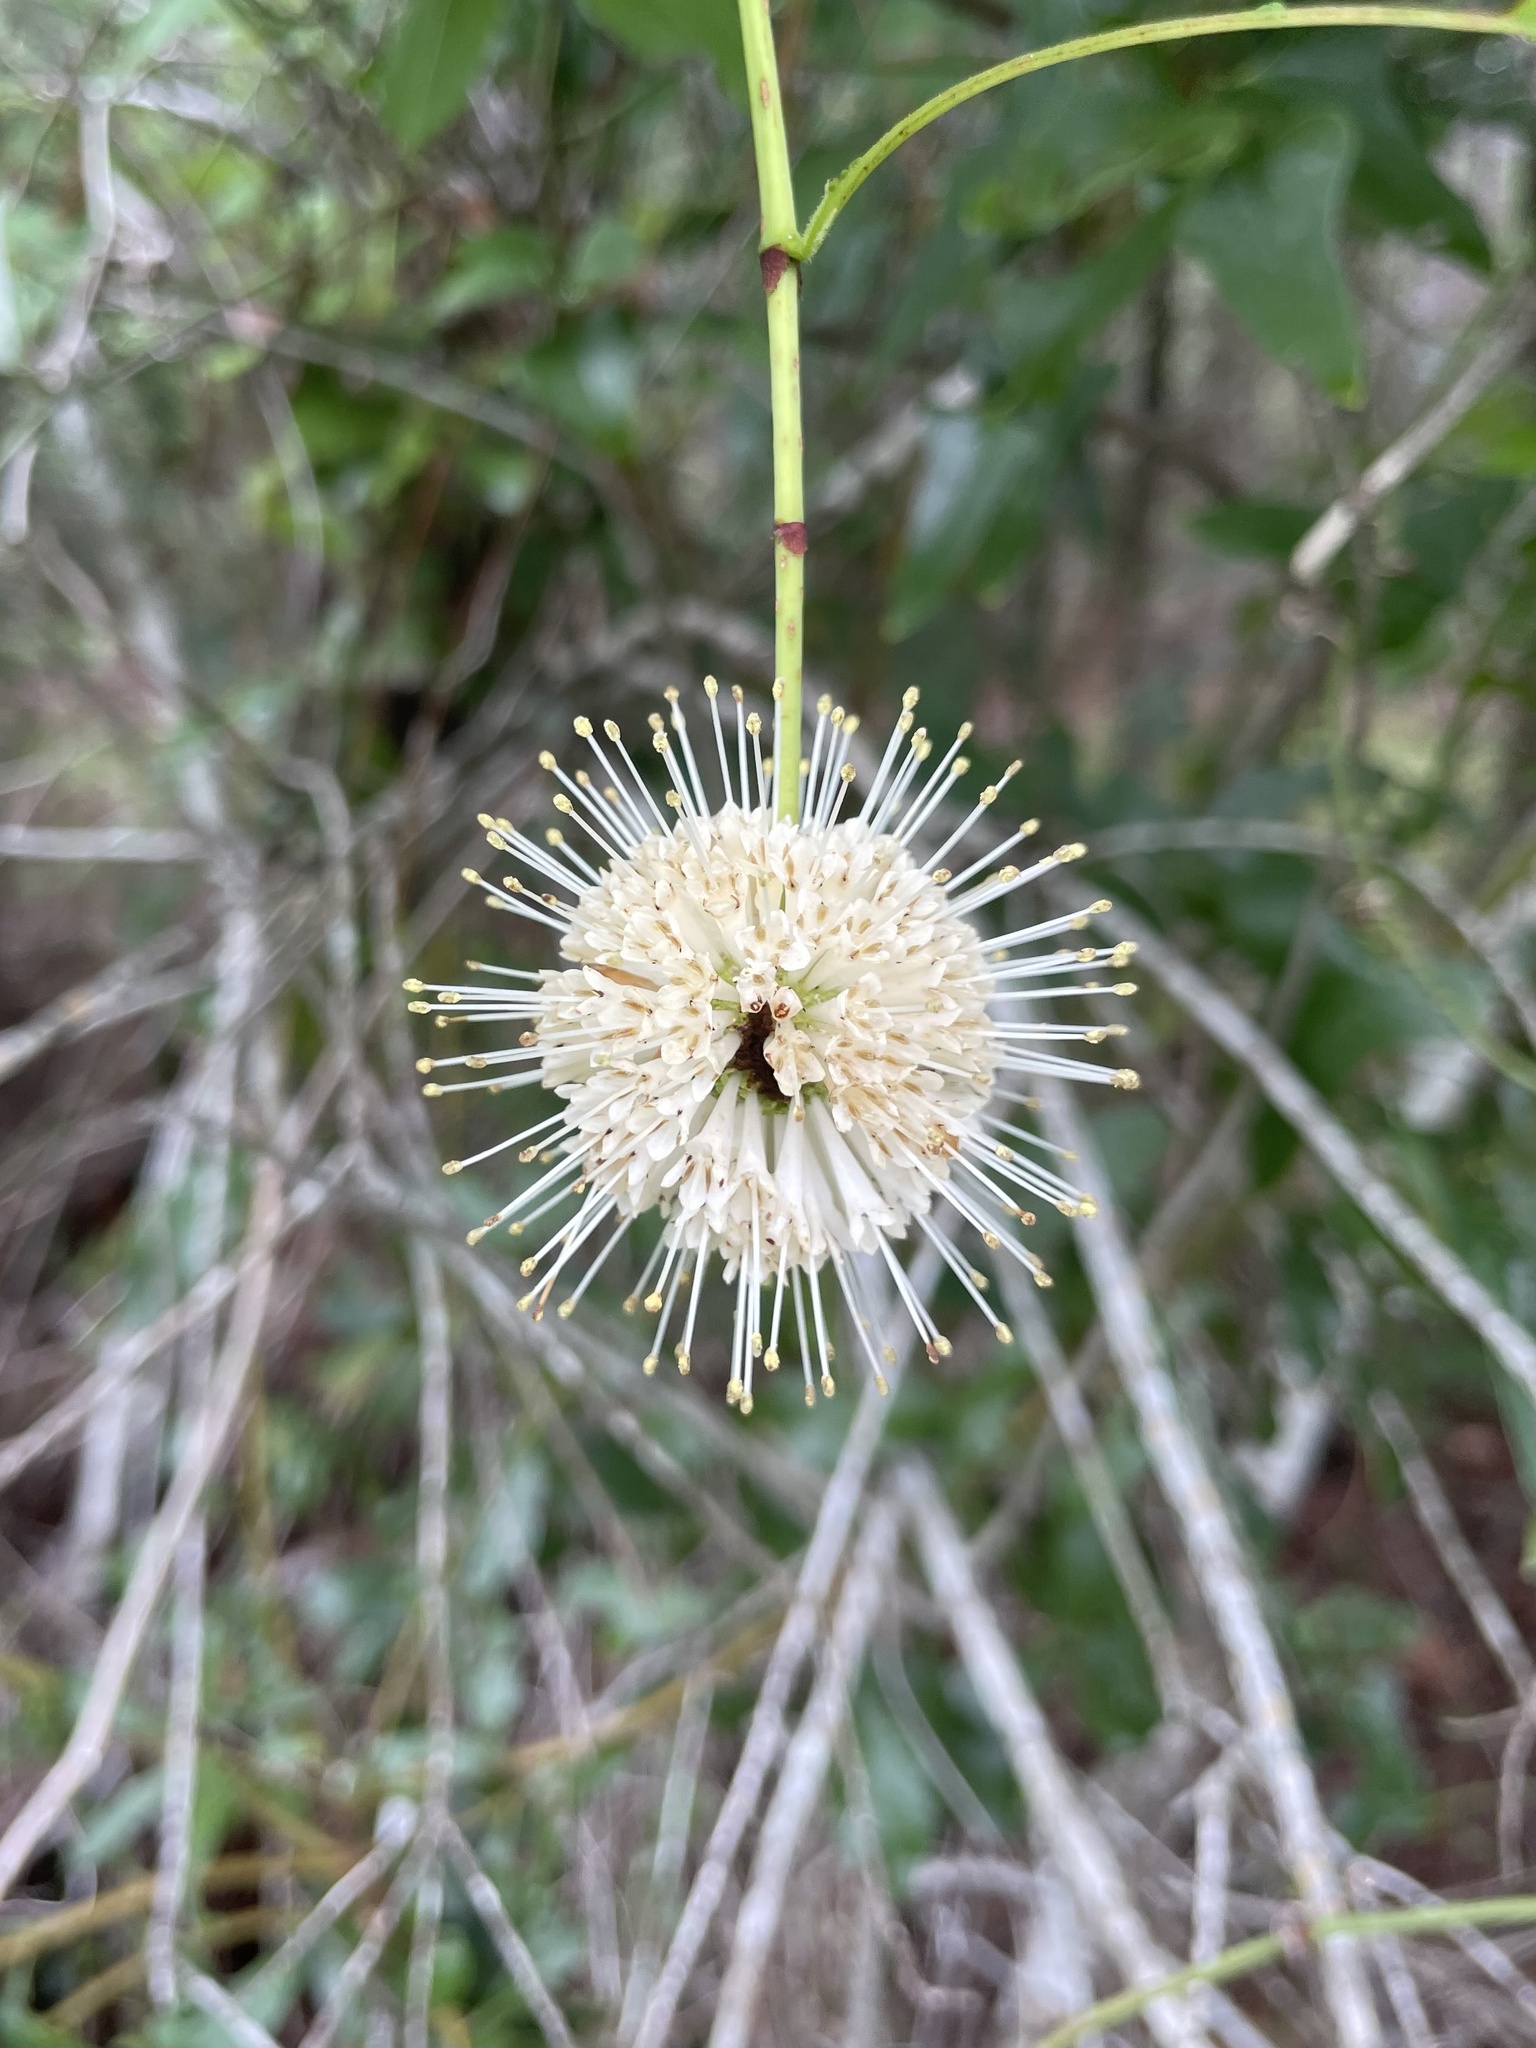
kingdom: Plantae
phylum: Tracheophyta
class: Magnoliopsida
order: Gentianales
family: Rubiaceae
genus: Cephalanthus
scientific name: Cephalanthus occidentalis
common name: Button-willow
